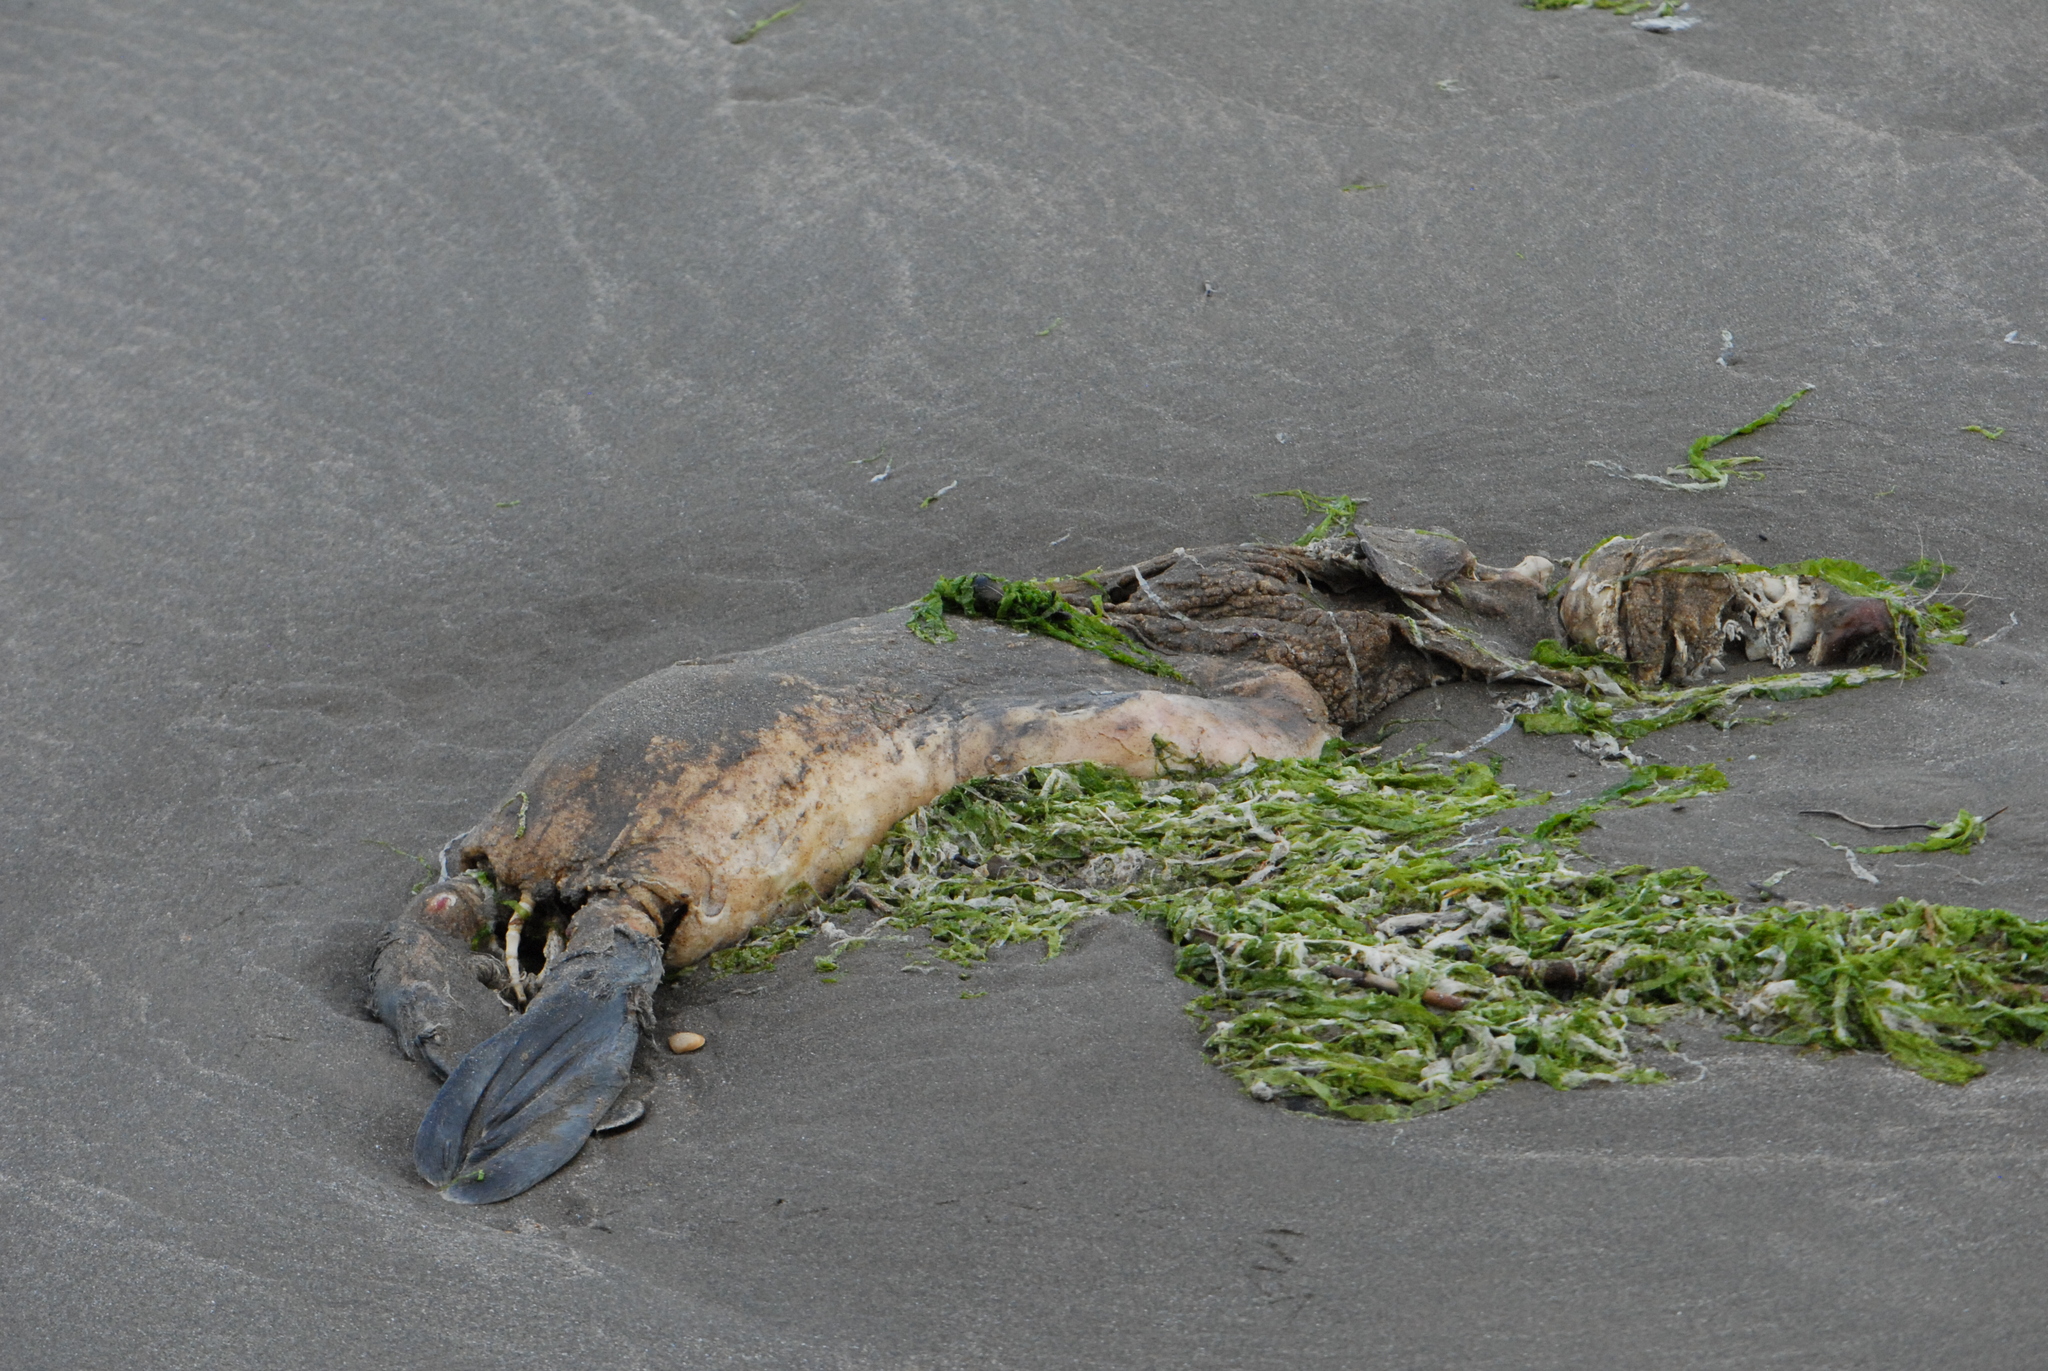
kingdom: Animalia
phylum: Chordata
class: Mammalia
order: Carnivora
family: Phocidae
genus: Pusa
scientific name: Pusa caspica
